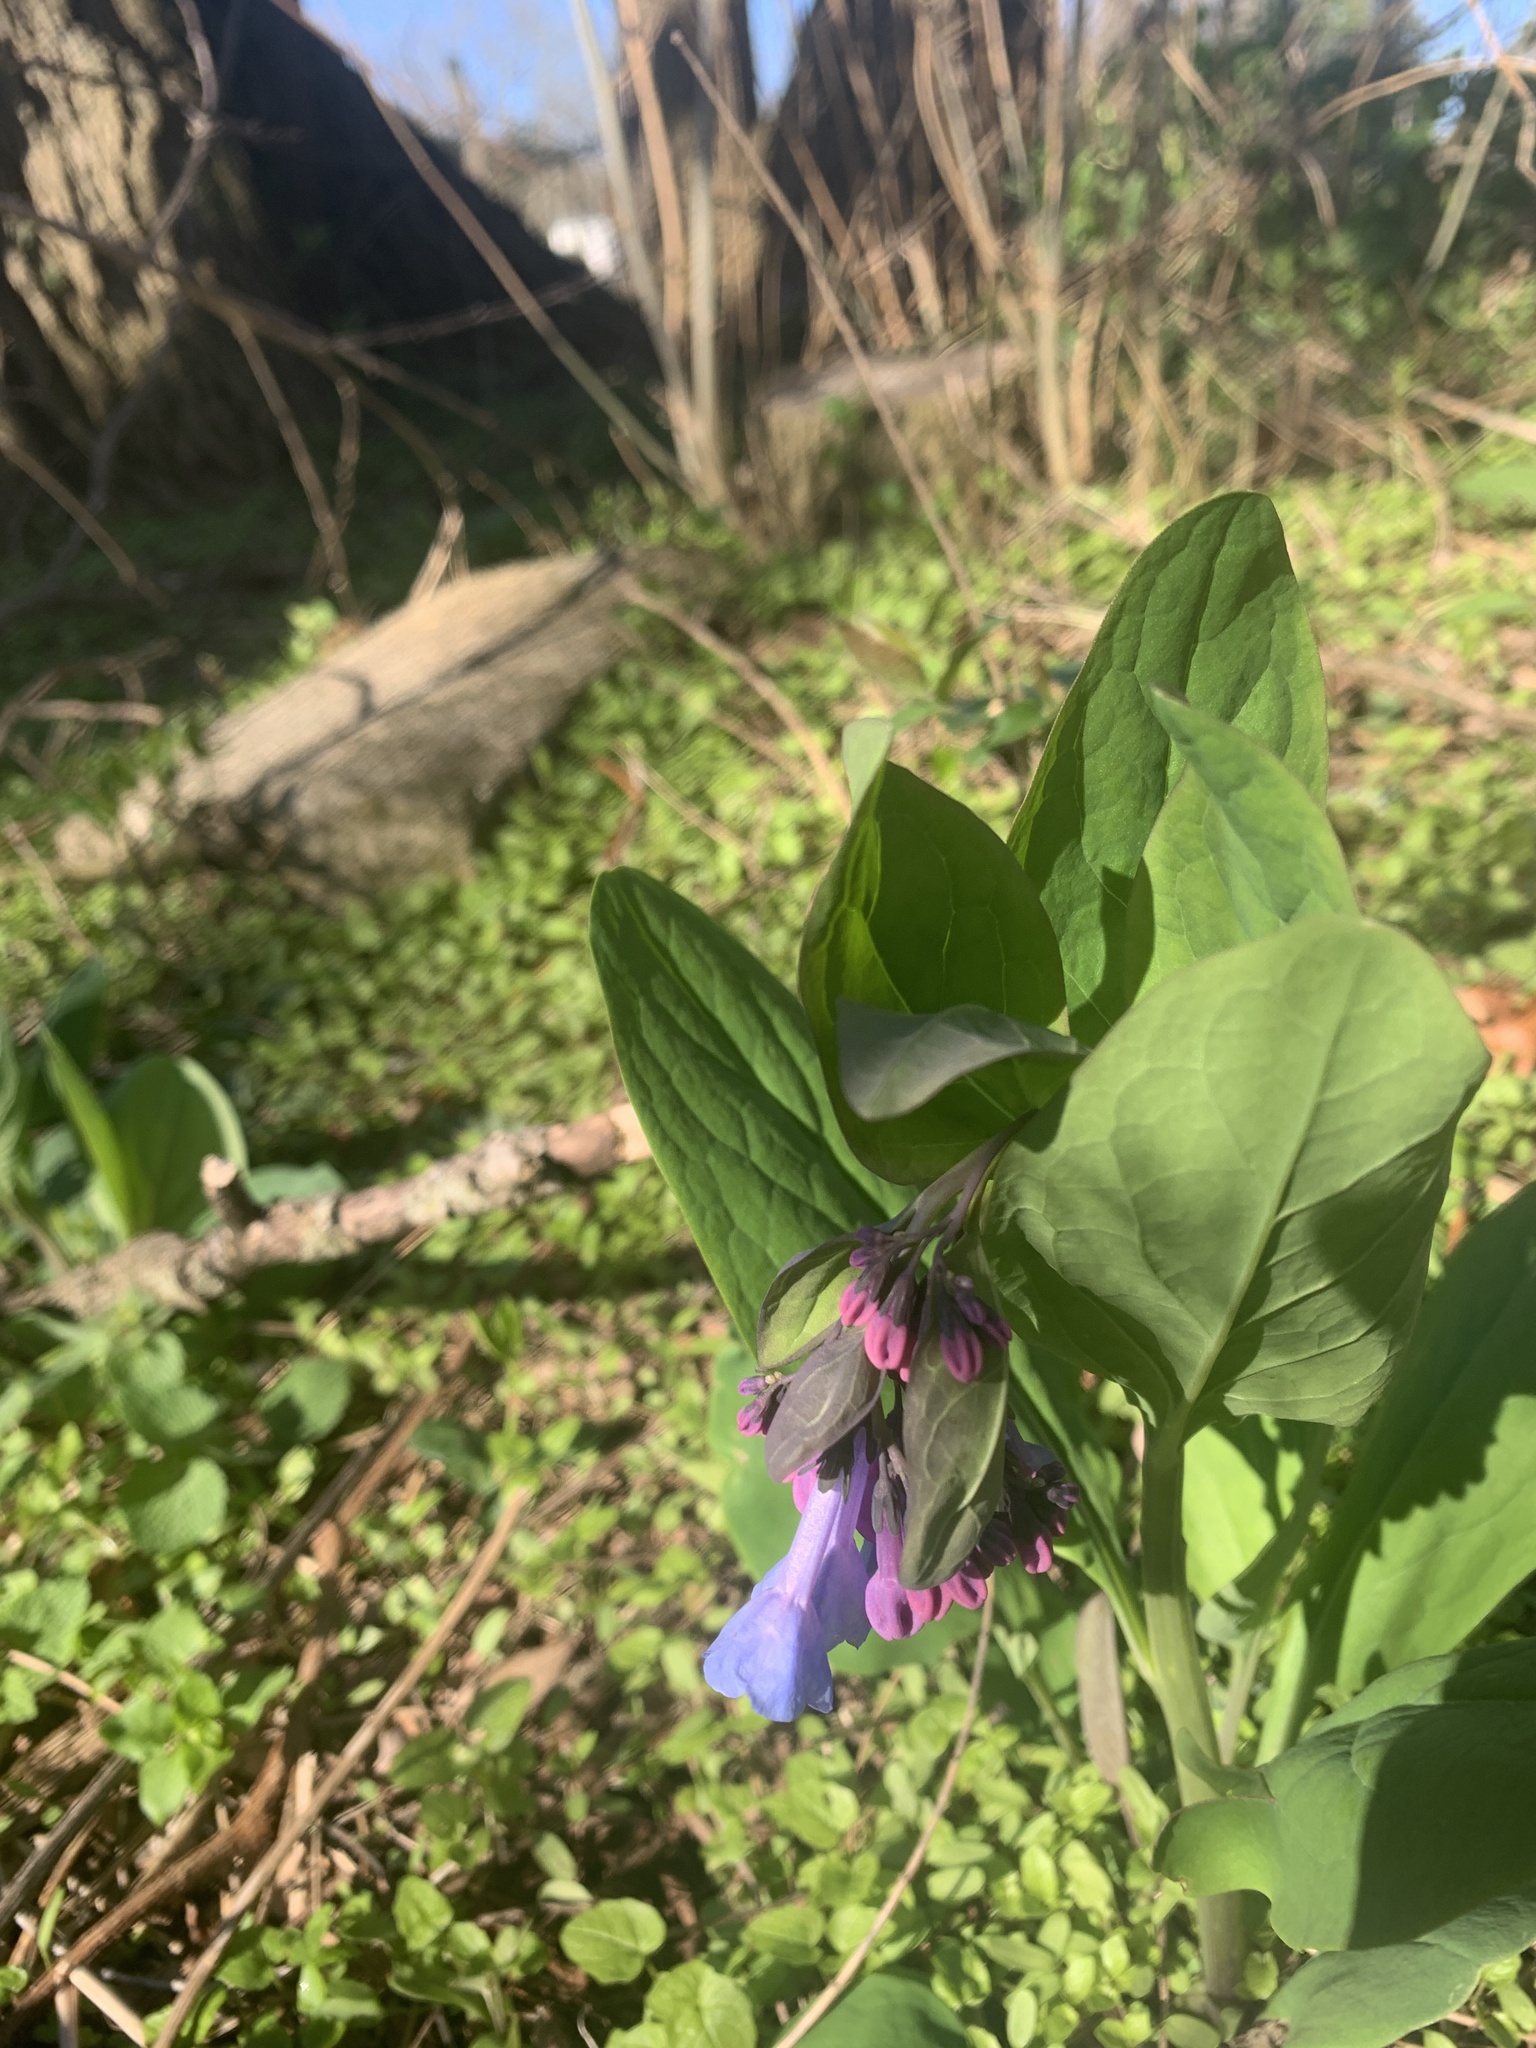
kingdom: Plantae
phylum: Tracheophyta
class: Magnoliopsida
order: Boraginales
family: Boraginaceae
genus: Mertensia
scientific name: Mertensia virginica
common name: Virginia bluebells
